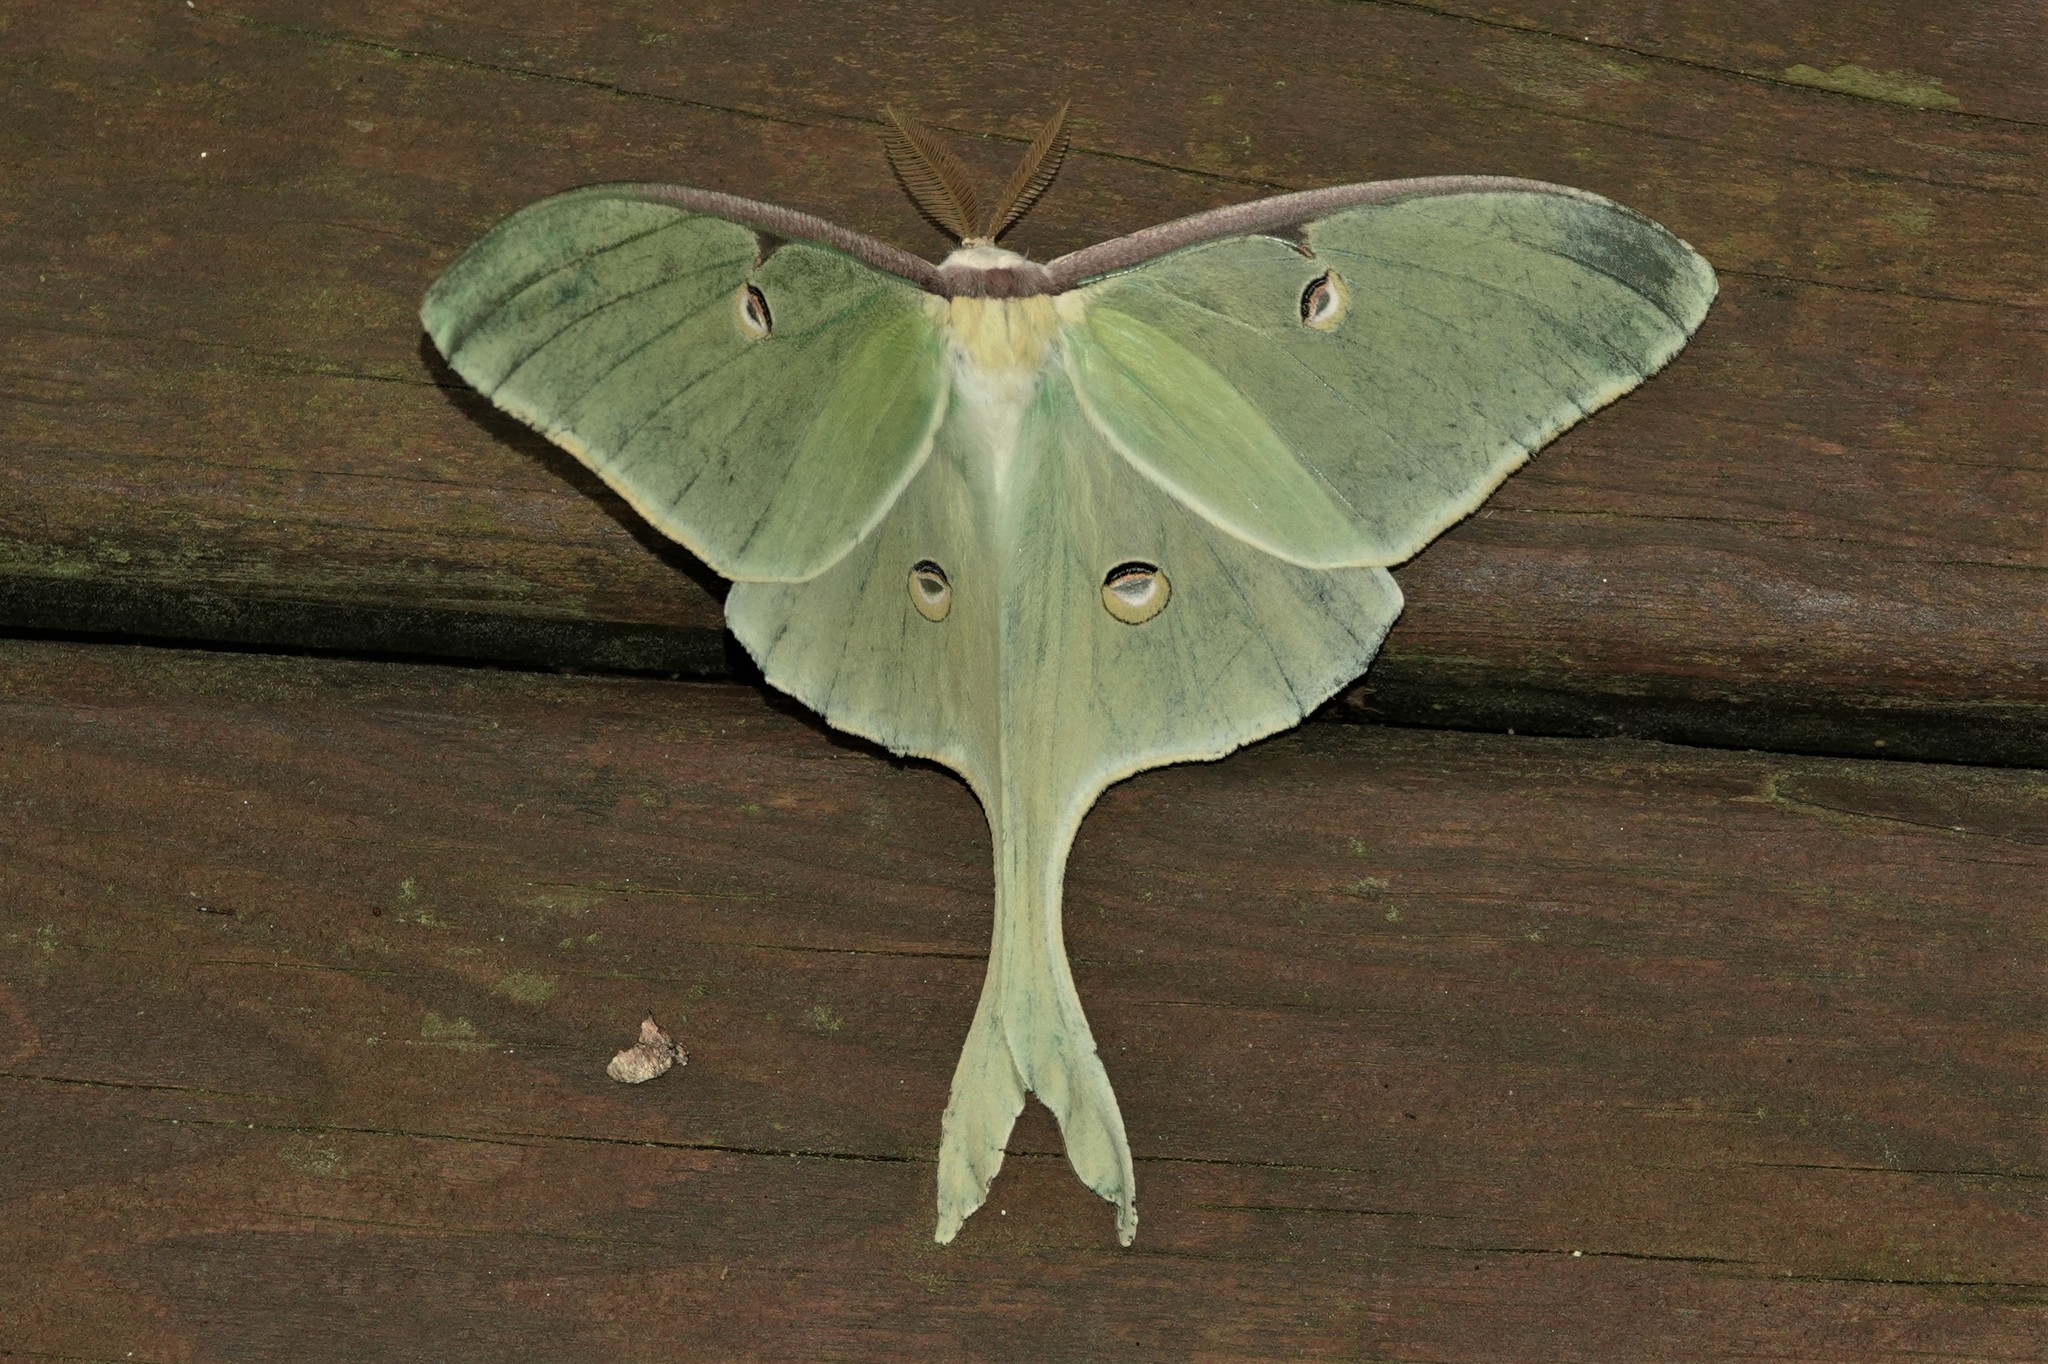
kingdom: Animalia
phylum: Arthropoda
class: Insecta
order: Lepidoptera
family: Saturniidae
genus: Actias
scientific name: Actias luna
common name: Luna moth
